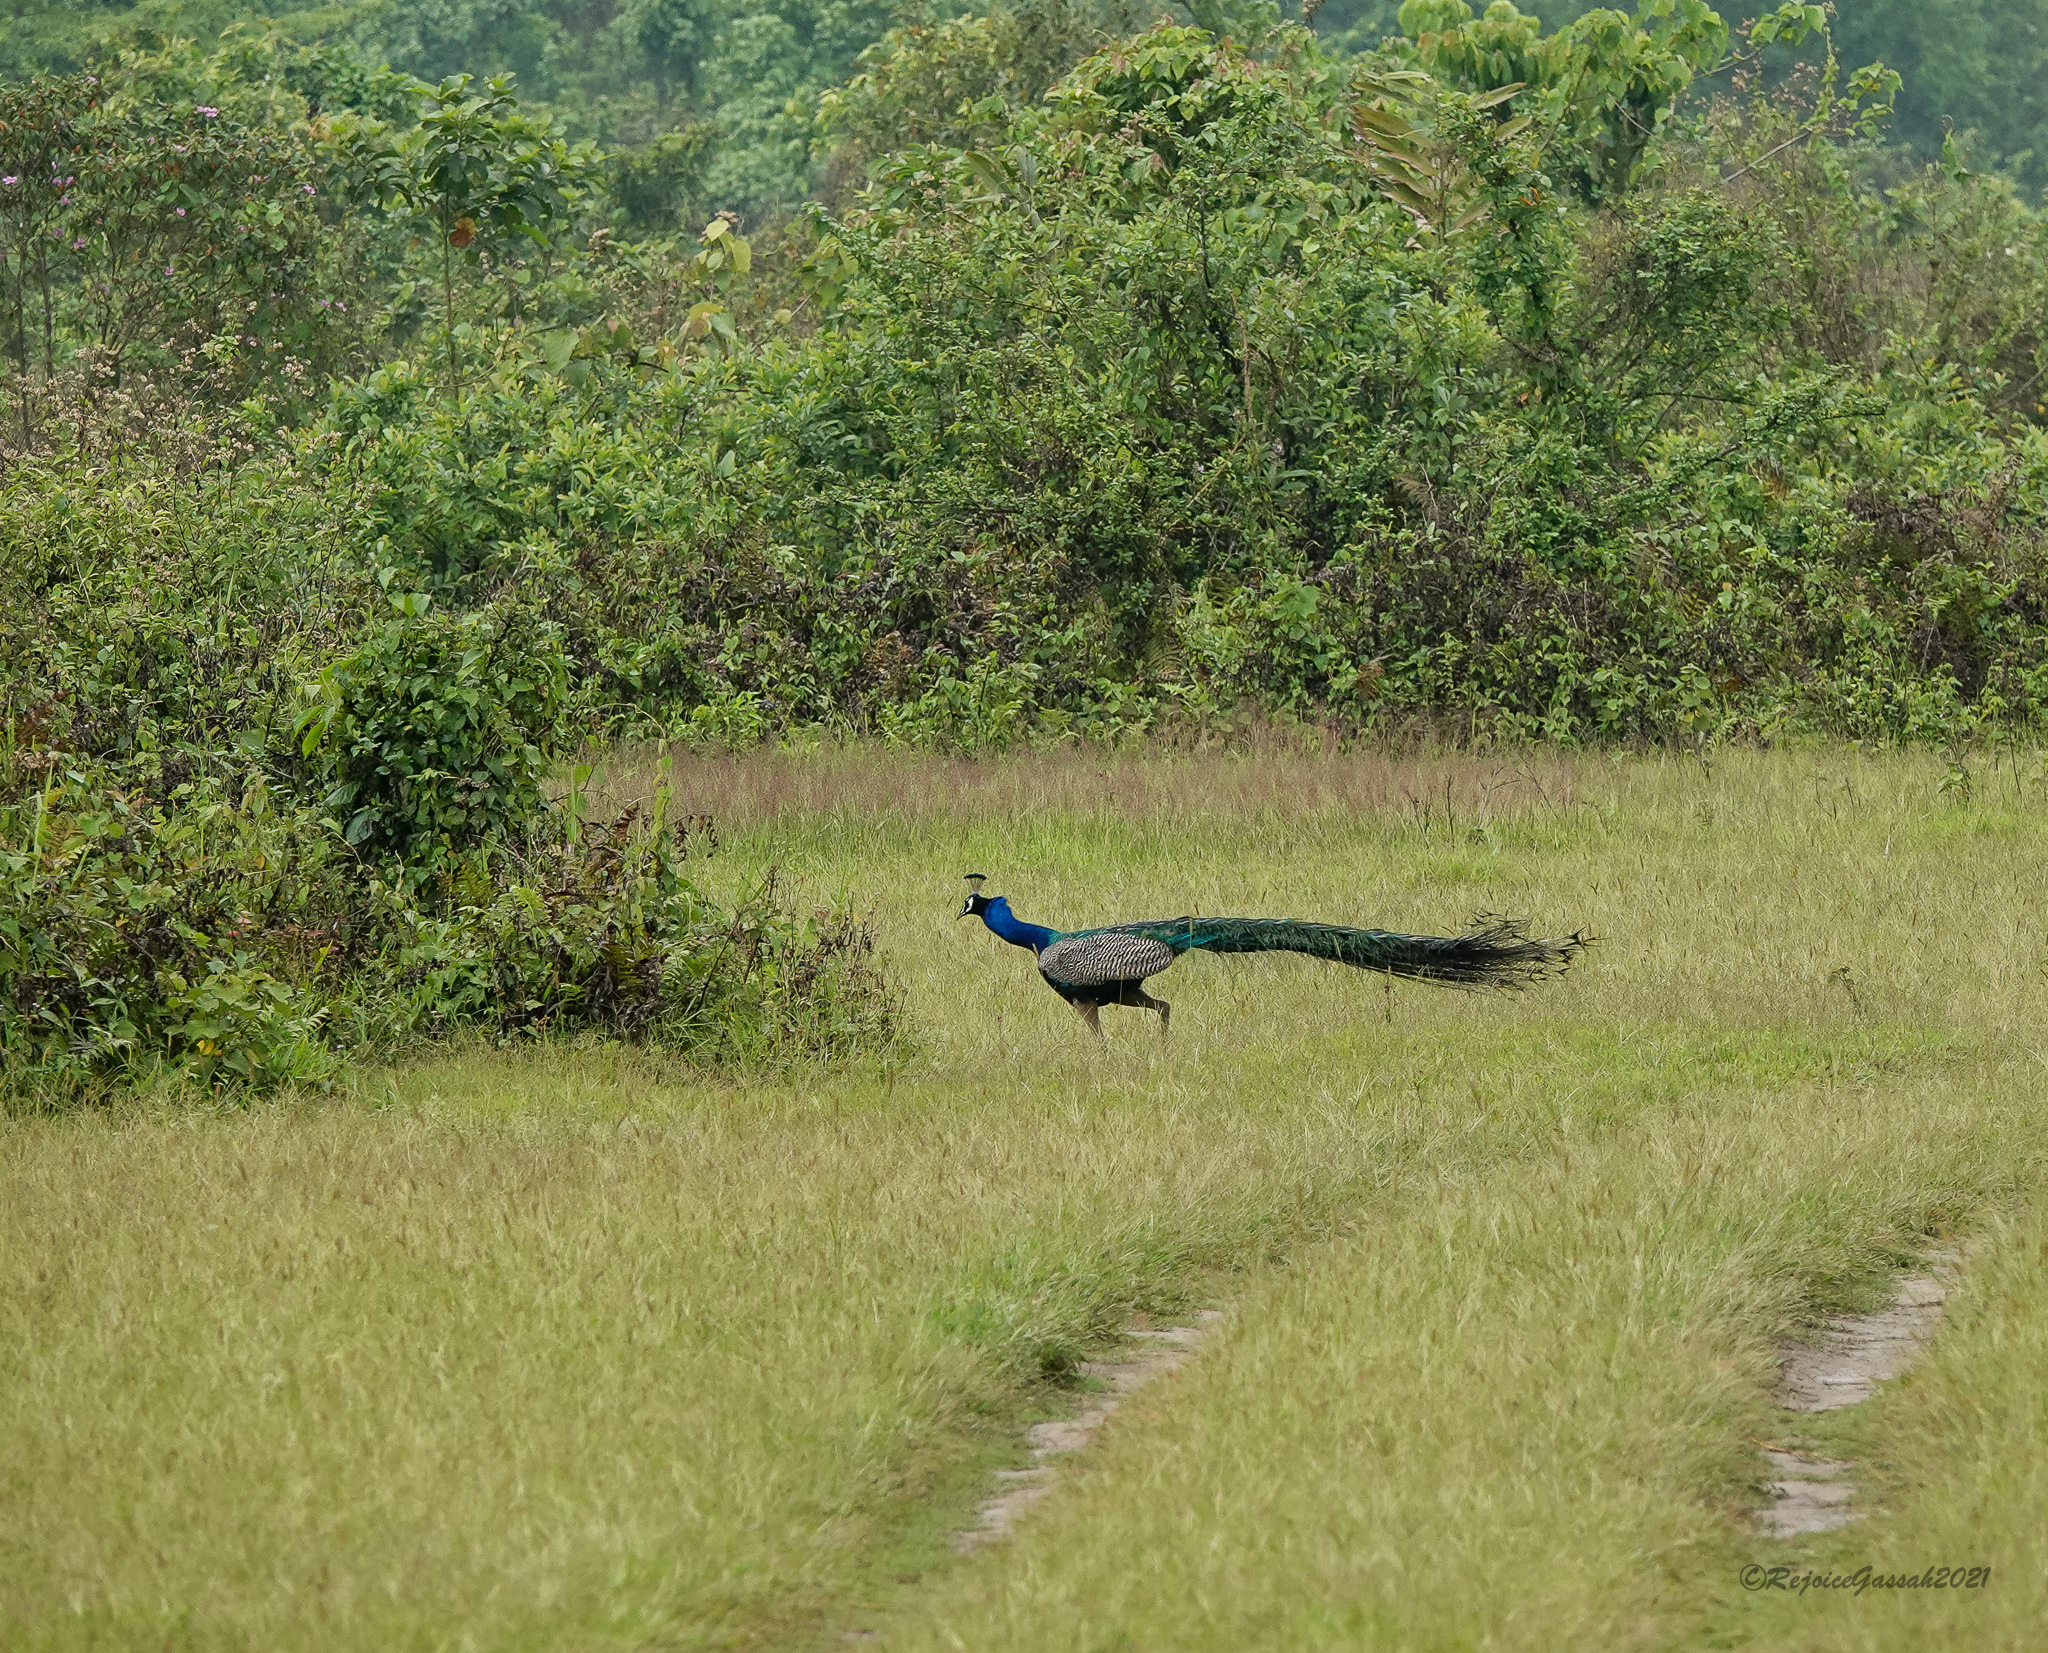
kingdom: Animalia
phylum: Chordata
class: Aves
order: Galliformes
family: Phasianidae
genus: Pavo
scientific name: Pavo cristatus
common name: Indian peafowl
